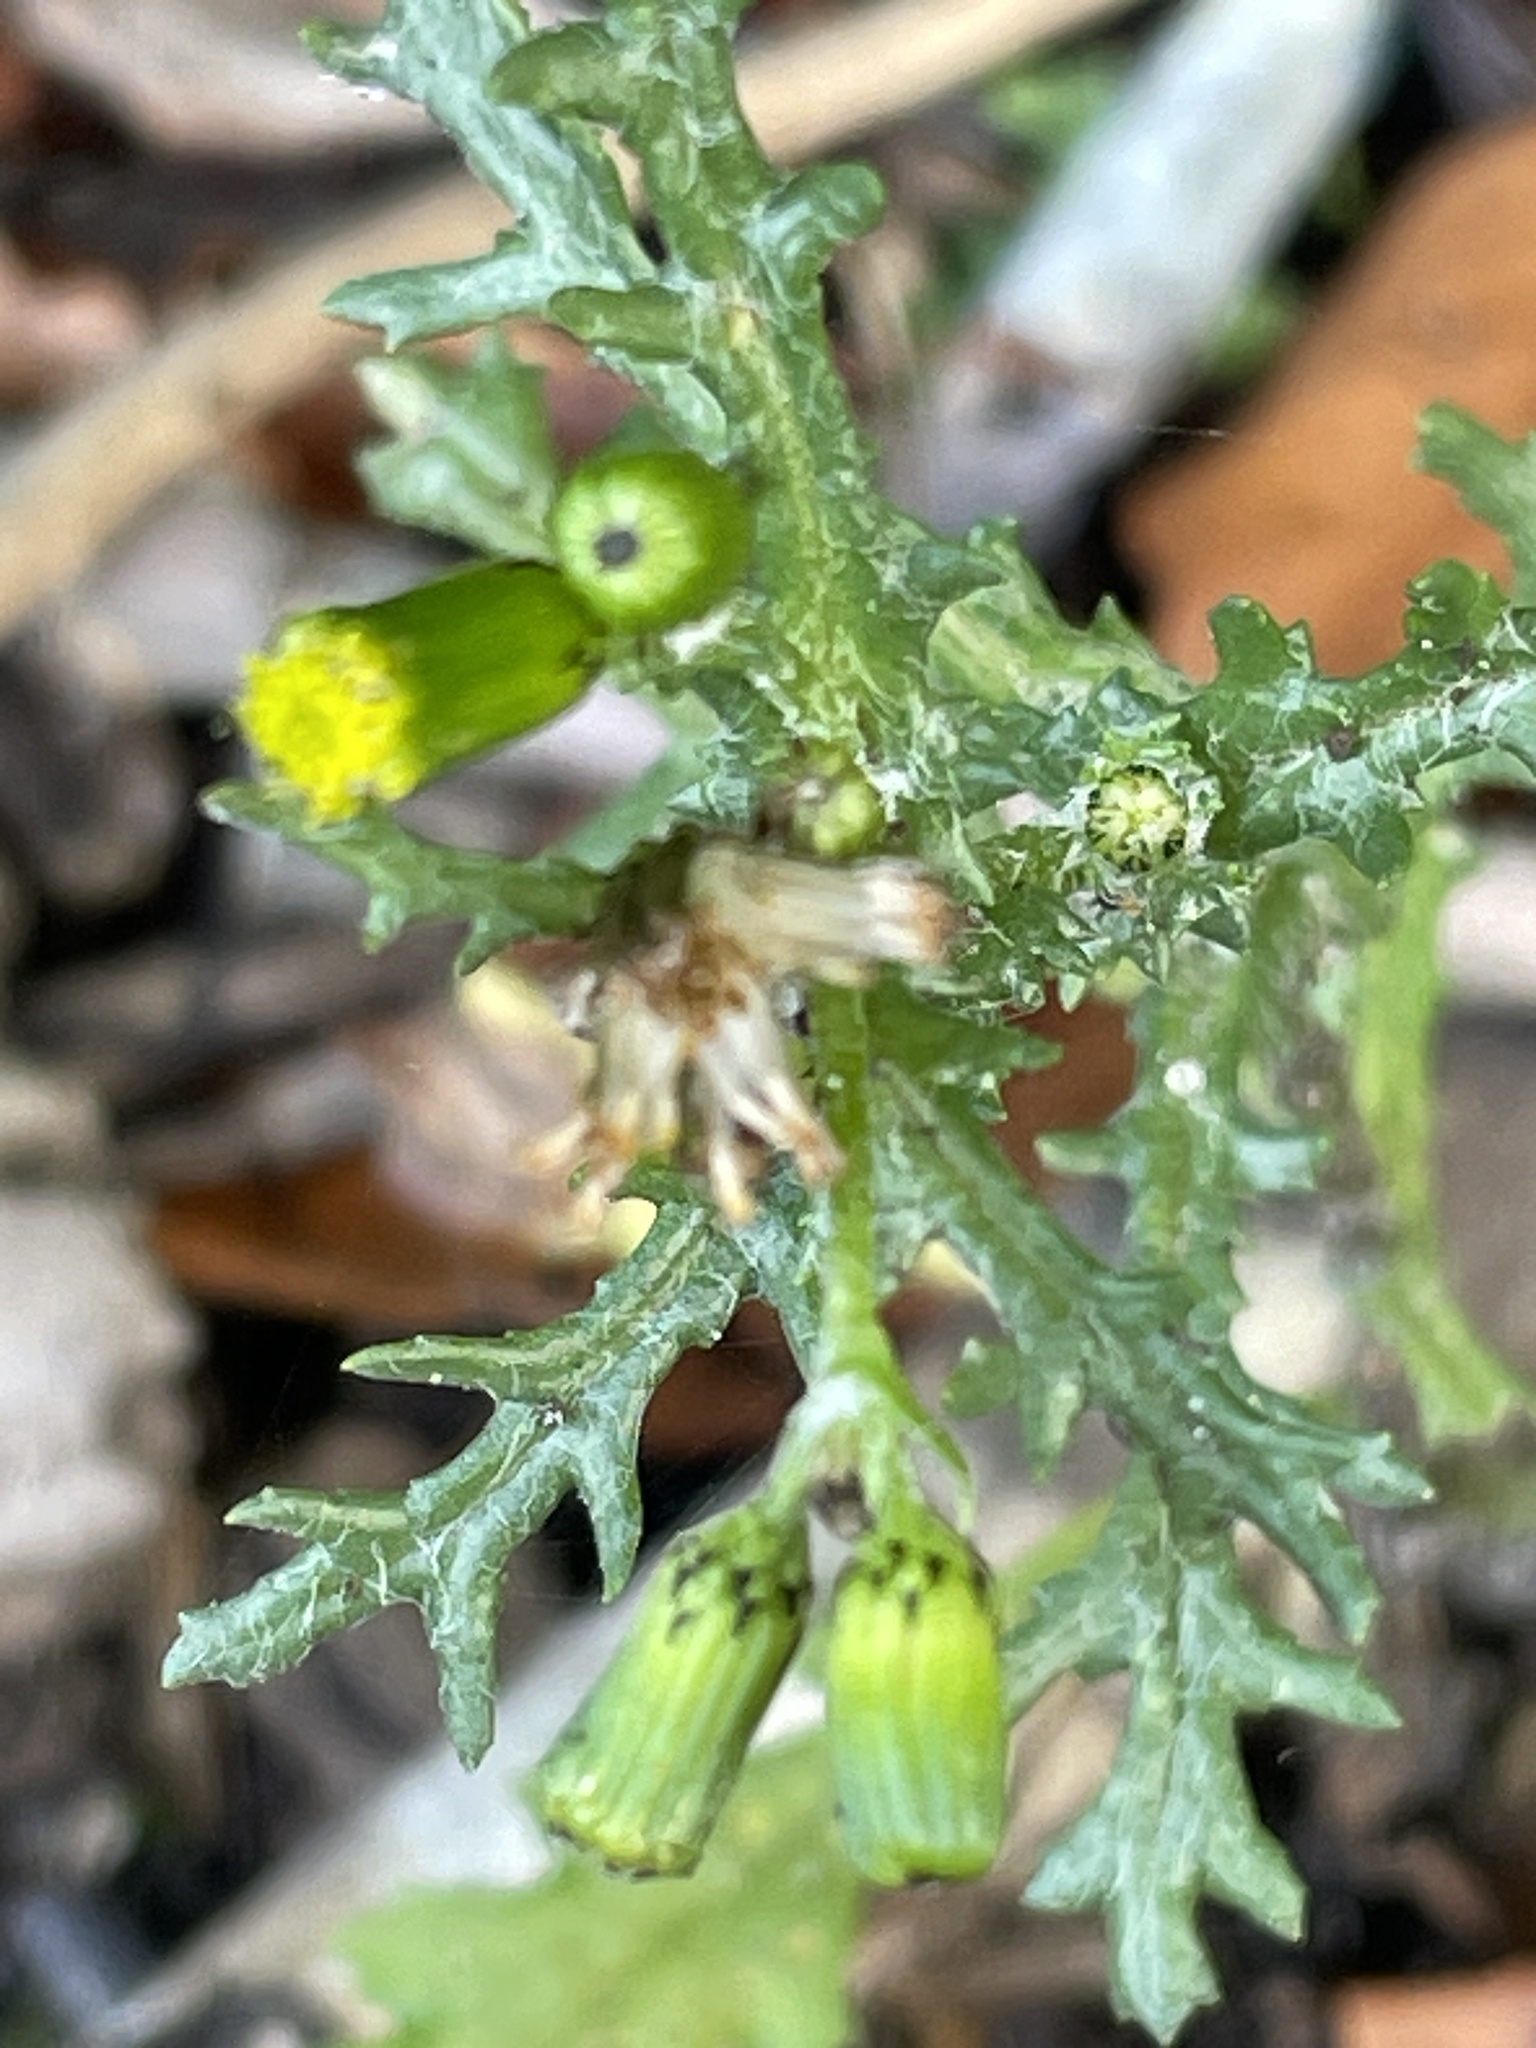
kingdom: Plantae
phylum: Tracheophyta
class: Magnoliopsida
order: Asterales
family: Asteraceae
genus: Senecio
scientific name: Senecio vulgaris
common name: Old-man-in-the-spring
